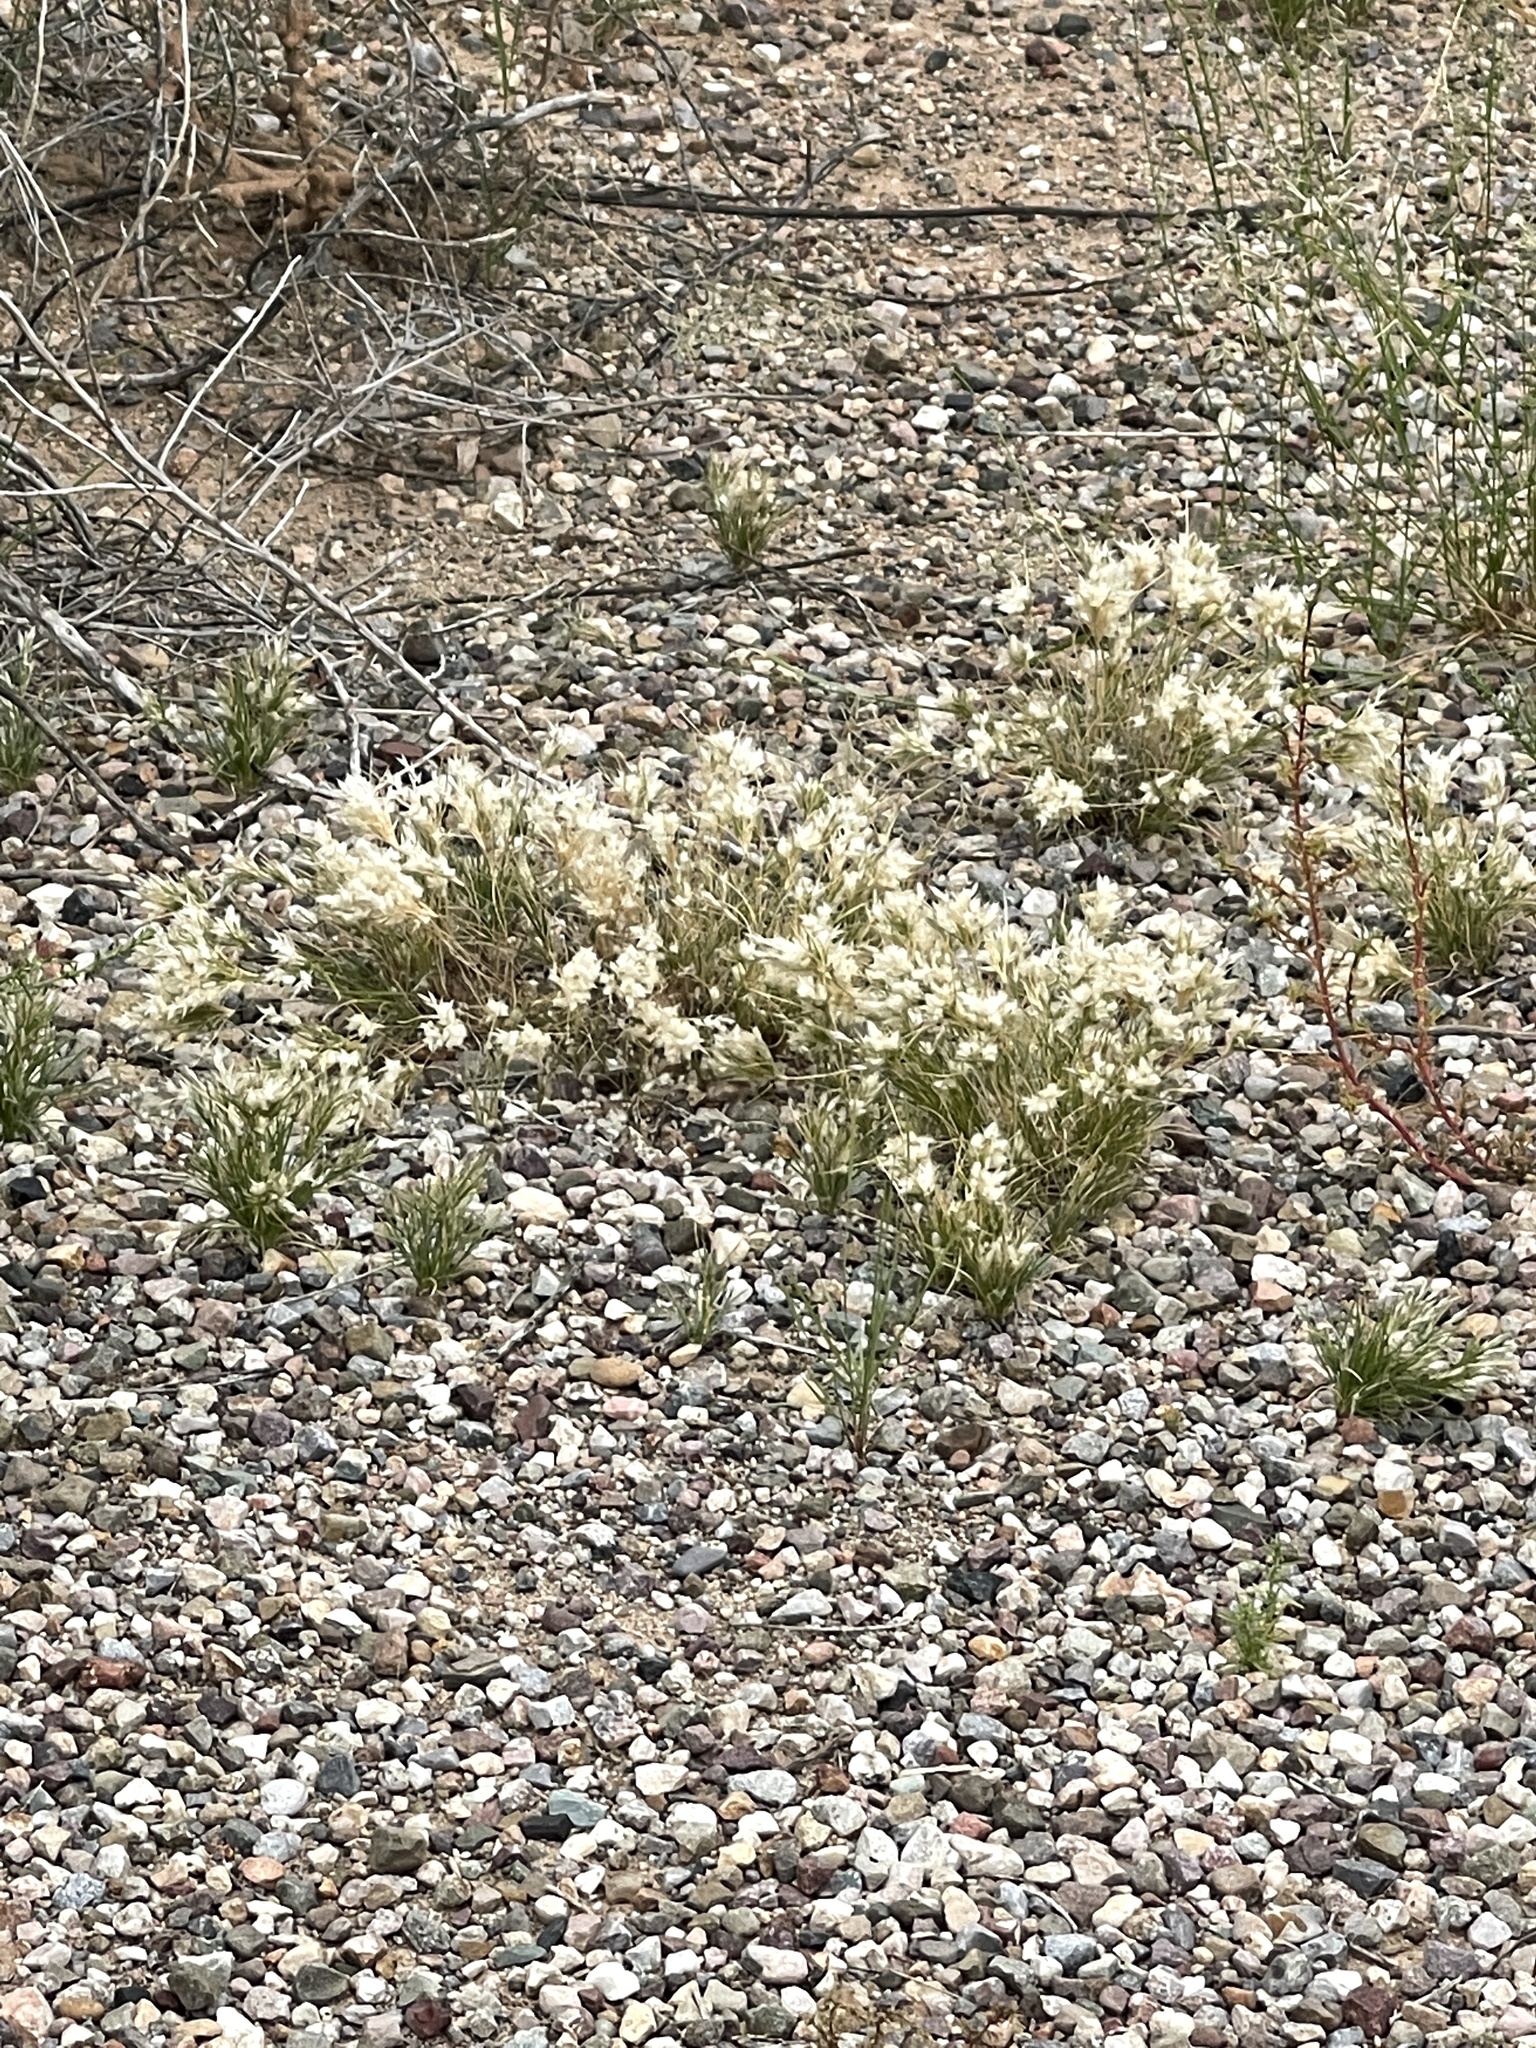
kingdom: Plantae
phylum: Tracheophyta
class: Liliopsida
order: Poales
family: Poaceae
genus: Dasyochloa
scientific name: Dasyochloa pulchella
